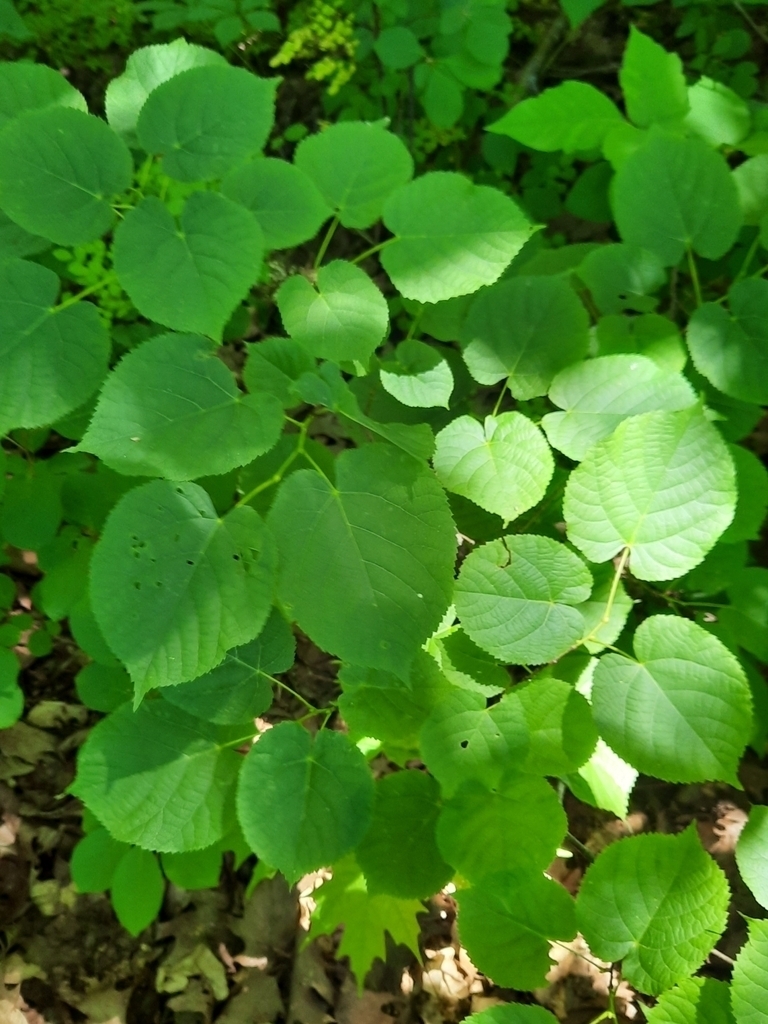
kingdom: Plantae
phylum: Tracheophyta
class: Magnoliopsida
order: Malvales
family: Malvaceae
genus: Tilia
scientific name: Tilia americana
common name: Basswood
